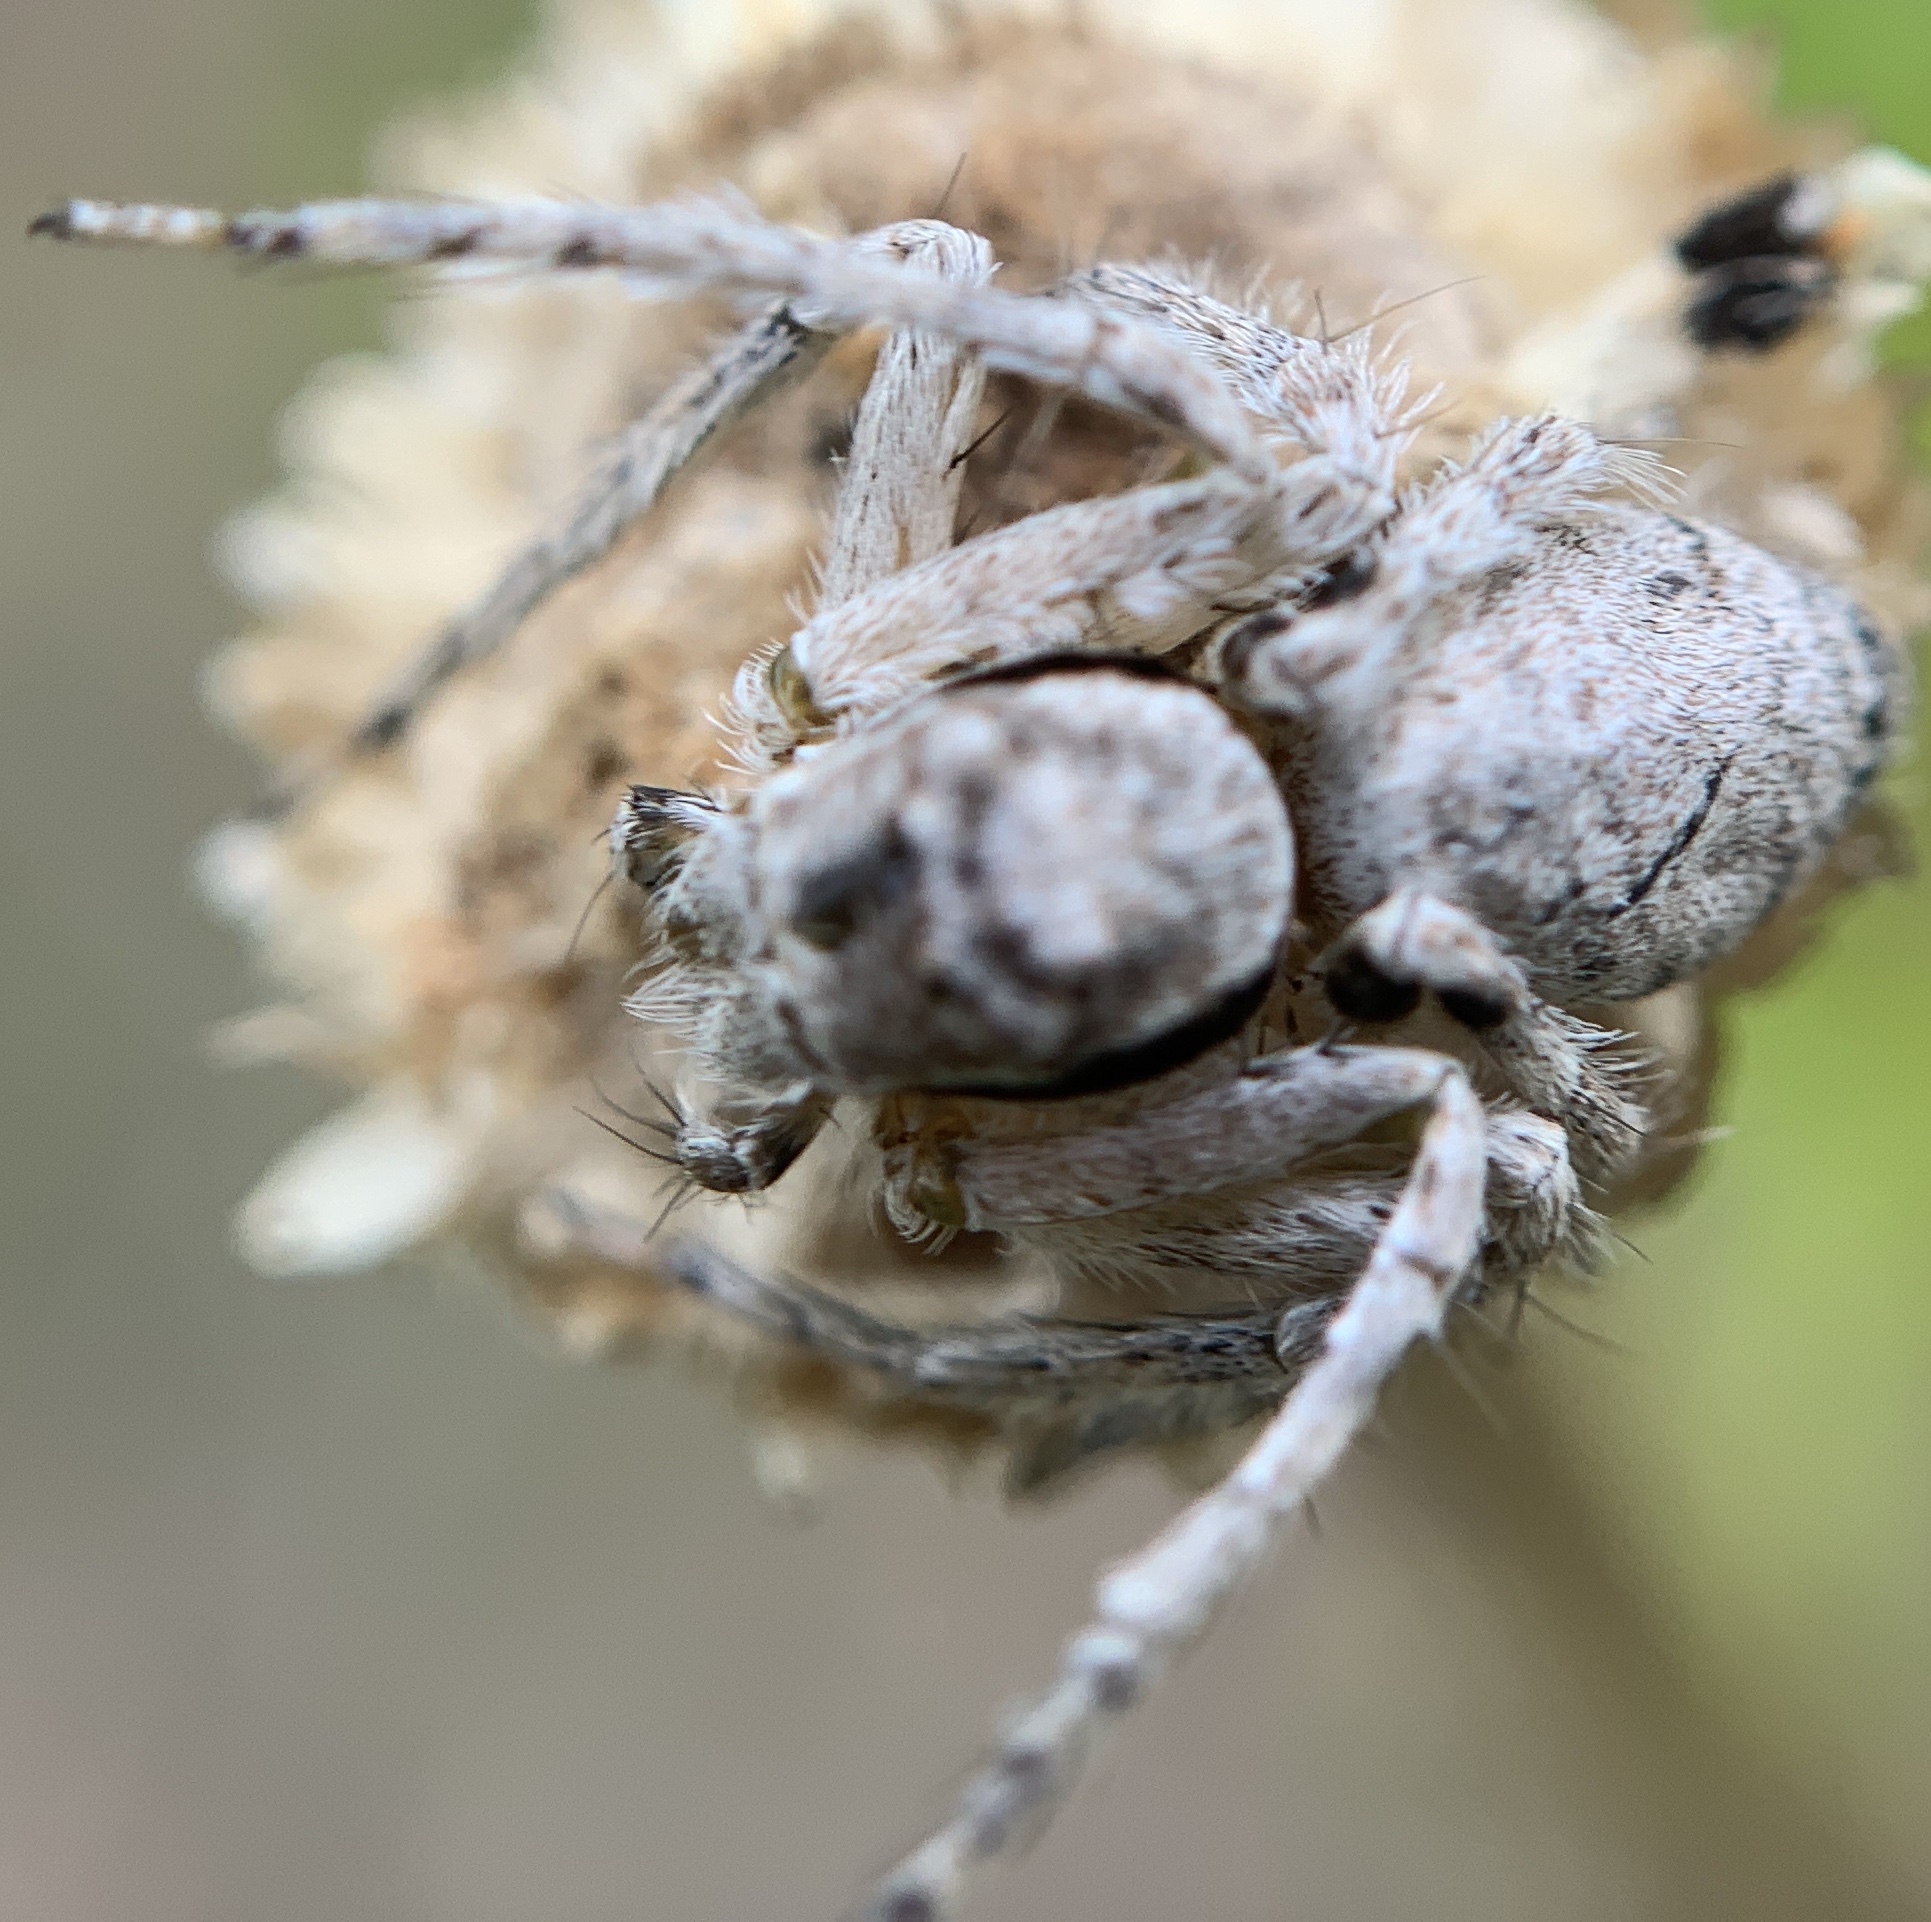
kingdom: Animalia
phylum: Arthropoda
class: Arachnida
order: Araneae
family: Oxyopidae
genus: Hamataliwa
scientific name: Hamataliwa grisea
